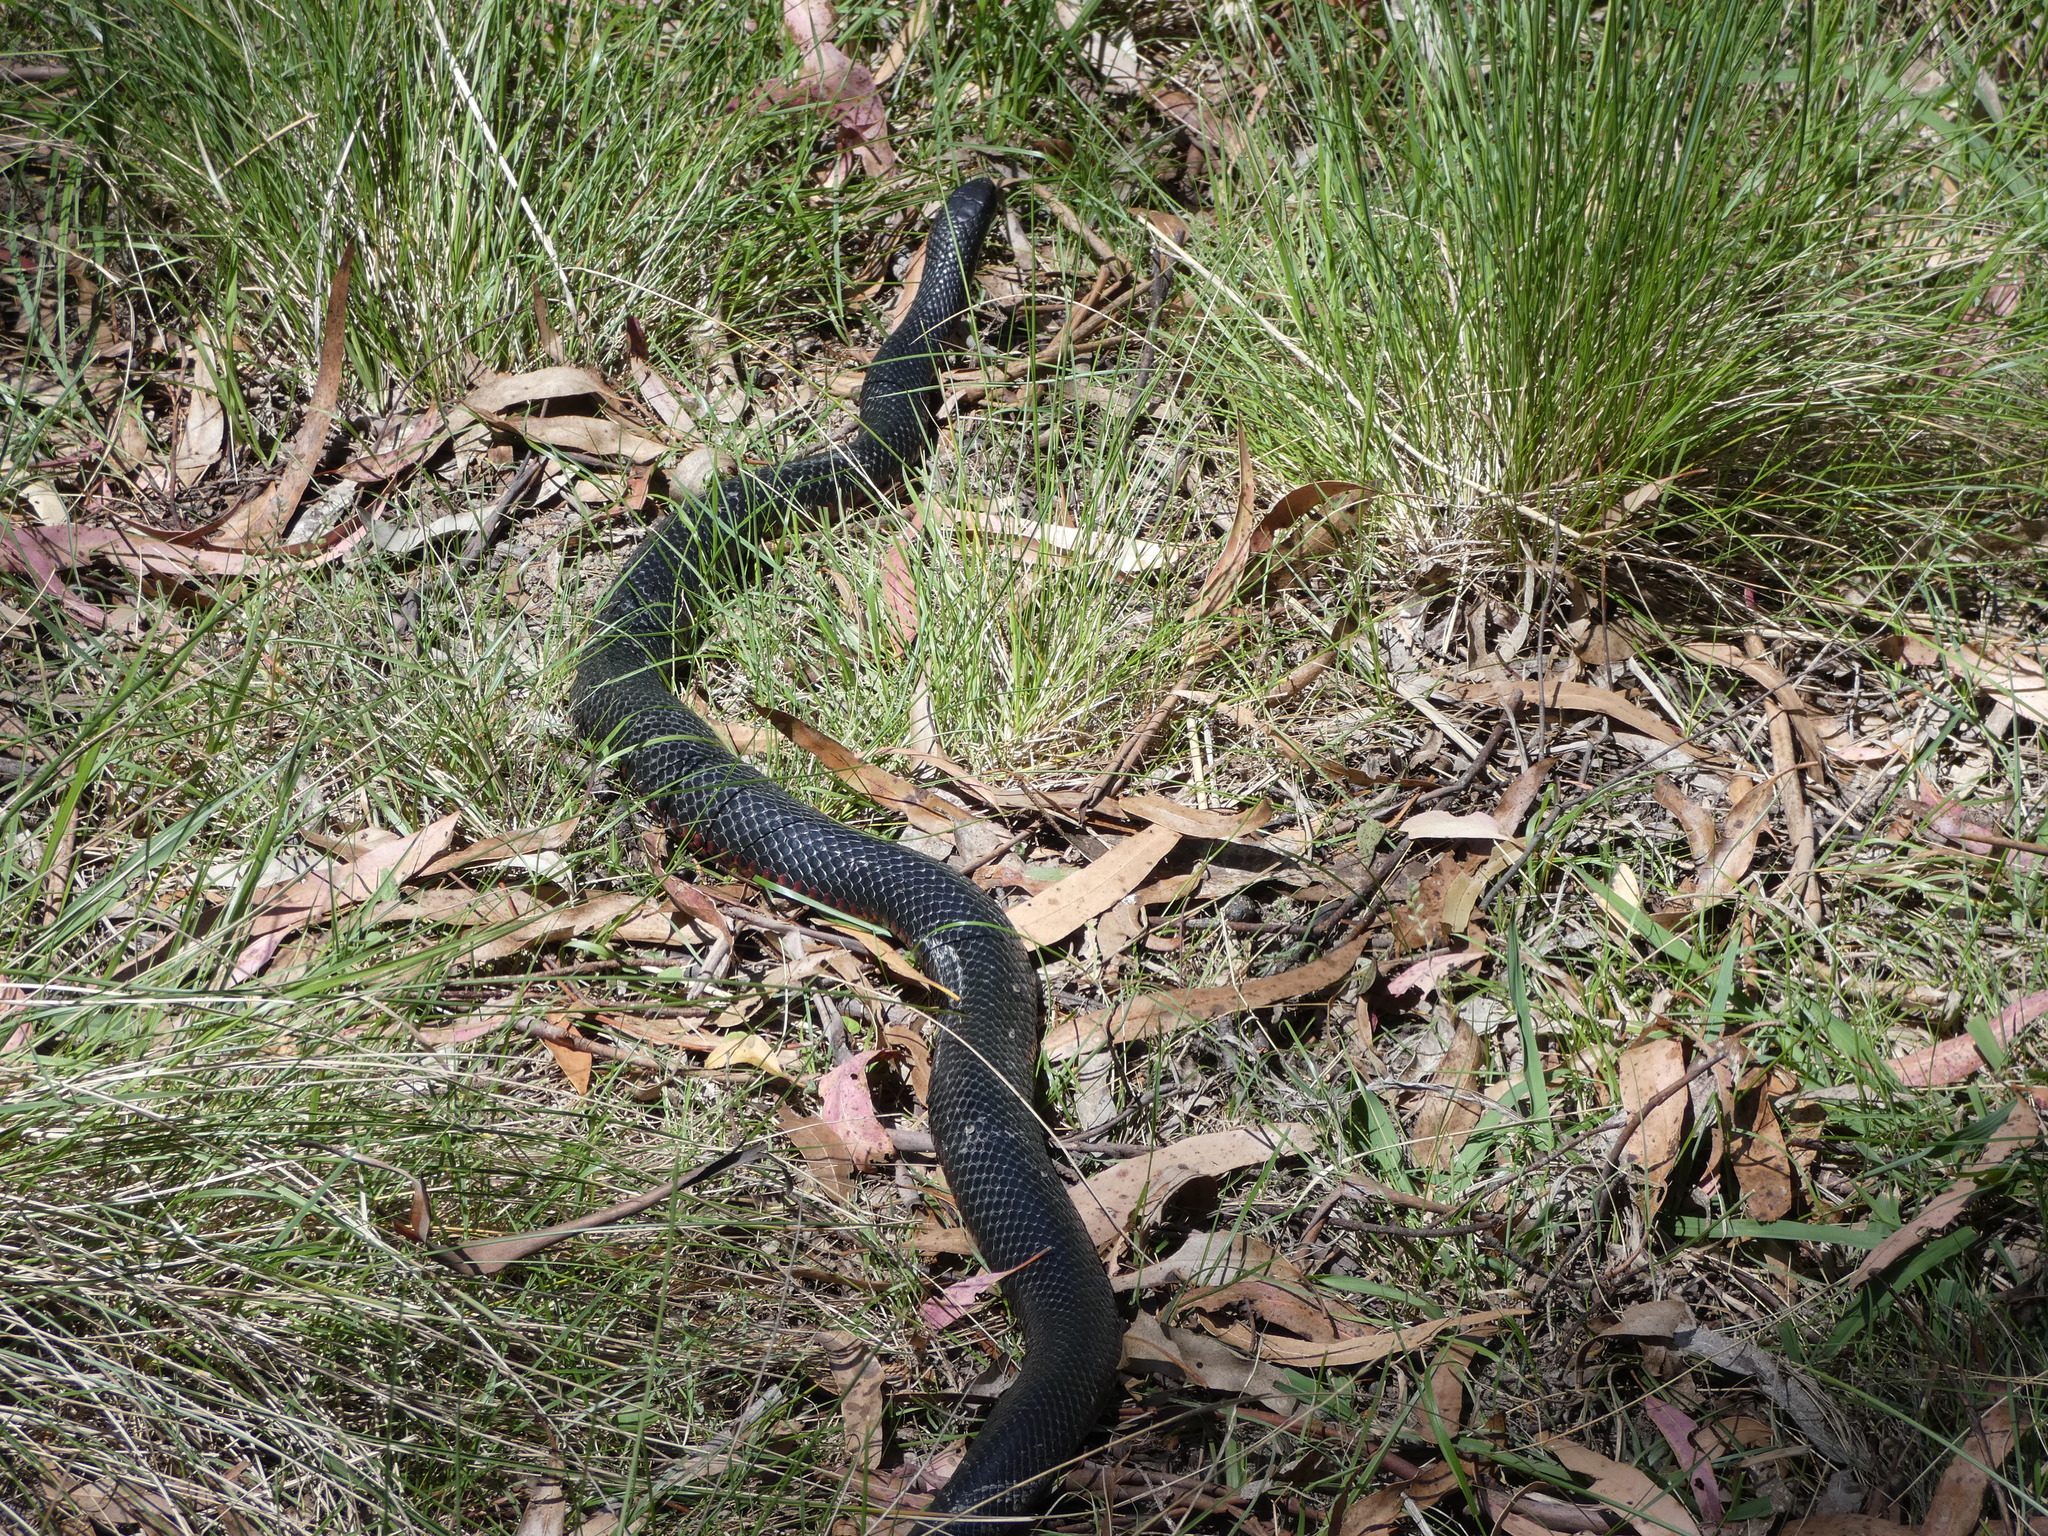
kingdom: Animalia
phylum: Chordata
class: Squamata
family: Elapidae
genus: Pseudechis
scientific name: Pseudechis porphyriacus
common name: Australian black snake
